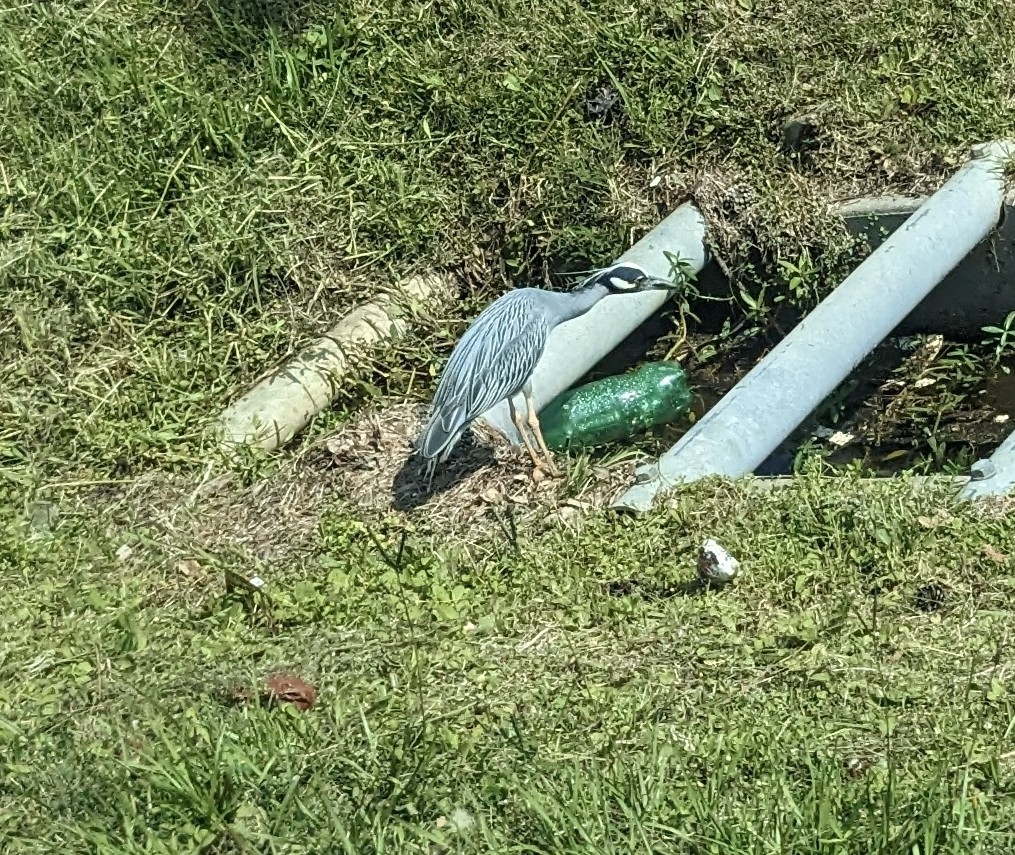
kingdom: Animalia
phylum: Chordata
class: Aves
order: Pelecaniformes
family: Ardeidae
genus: Nyctanassa
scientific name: Nyctanassa violacea
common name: Yellow-crowned night heron
